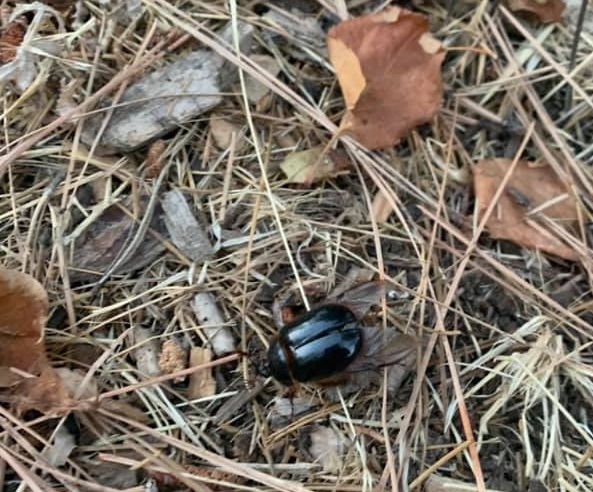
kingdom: Animalia
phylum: Arthropoda
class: Insecta
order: Coleoptera
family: Pleocomidae
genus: Pleocoma
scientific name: Pleocoma australis
